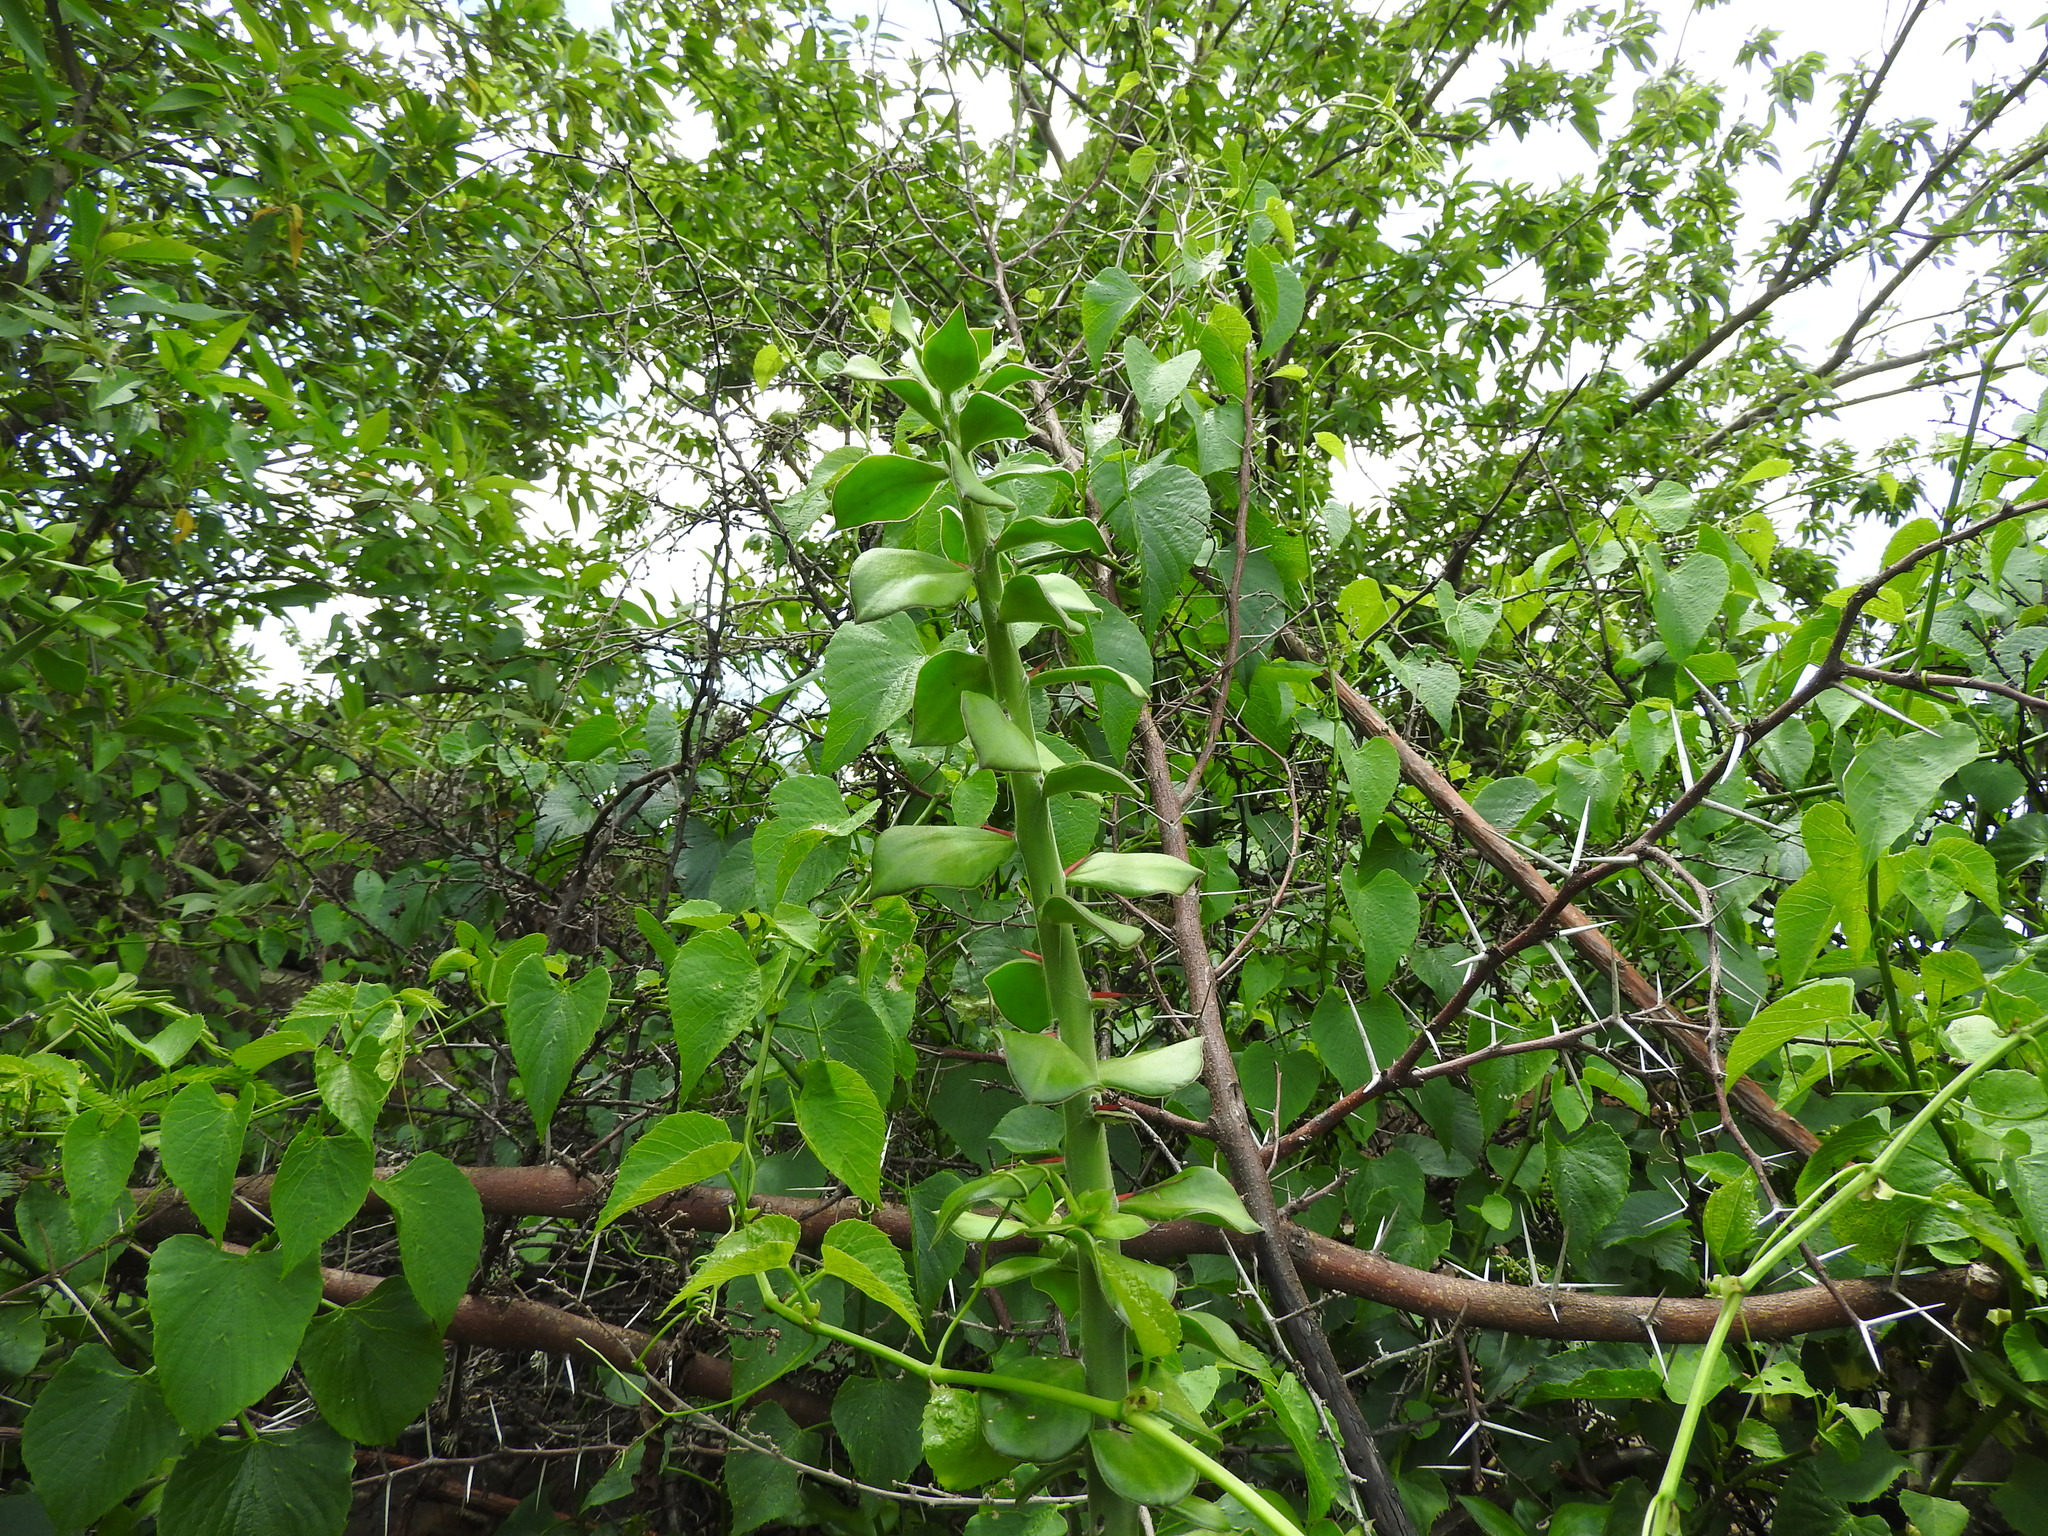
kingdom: Plantae
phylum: Tracheophyta
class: Magnoliopsida
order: Caryophyllales
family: Cactaceae
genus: Pereskiopsis
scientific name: Pereskiopsis diguetii
